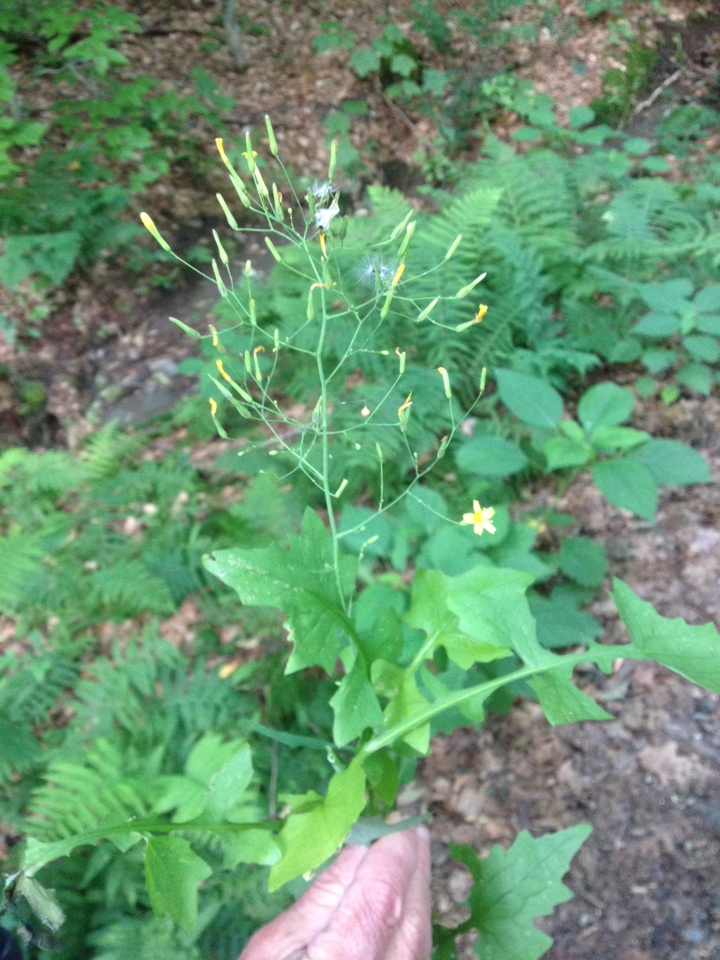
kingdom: Plantae
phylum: Tracheophyta
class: Magnoliopsida
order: Asterales
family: Asteraceae
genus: Mycelis
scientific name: Mycelis muralis
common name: Wall lettuce
